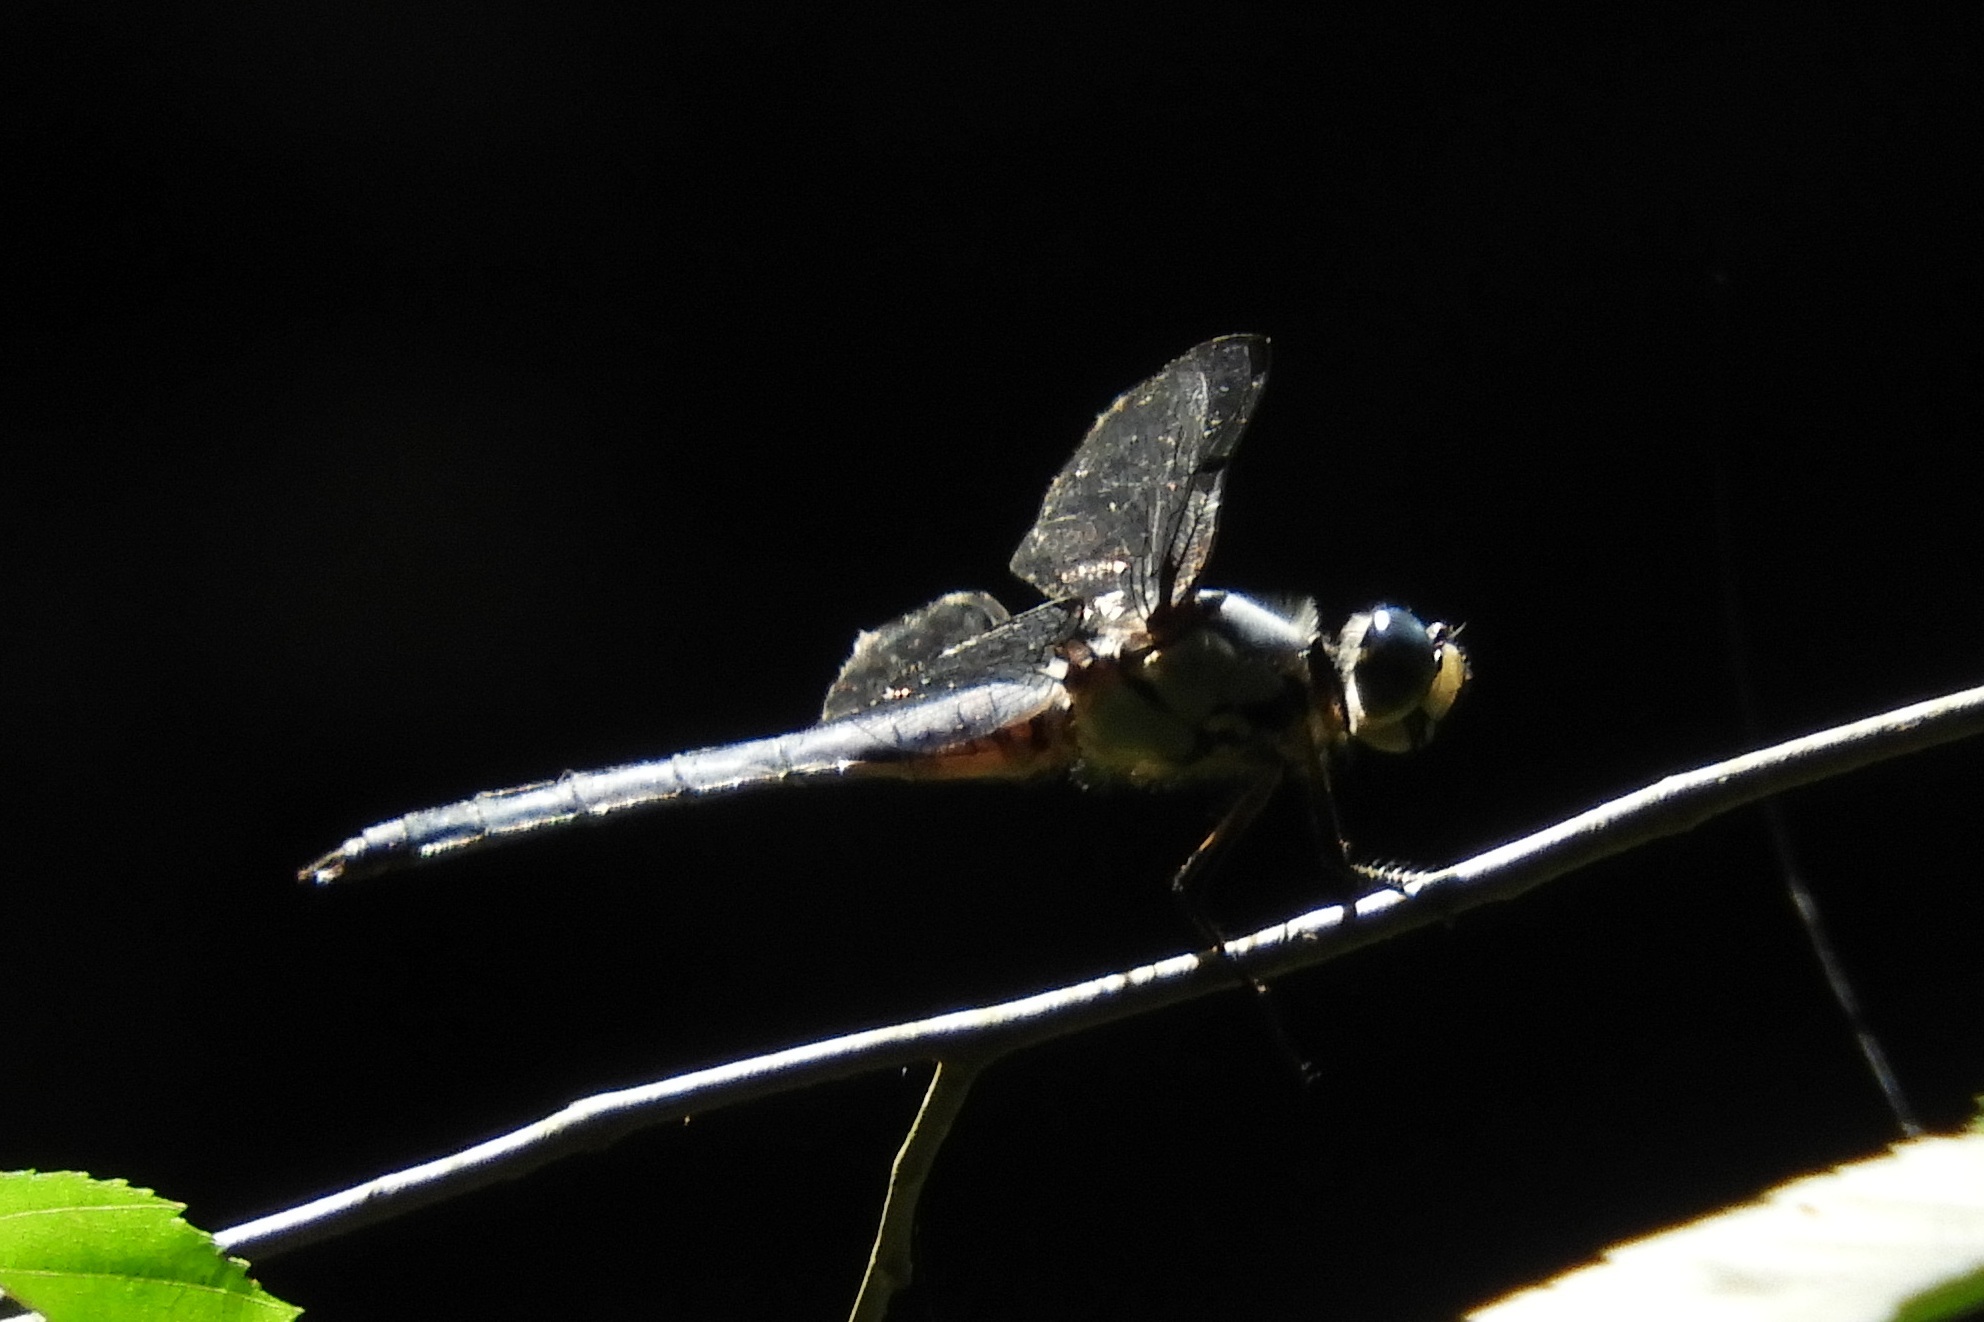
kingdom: Animalia
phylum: Arthropoda
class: Insecta
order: Odonata
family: Libellulidae
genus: Libellula
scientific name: Libellula vibrans
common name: Great blue skimmer
